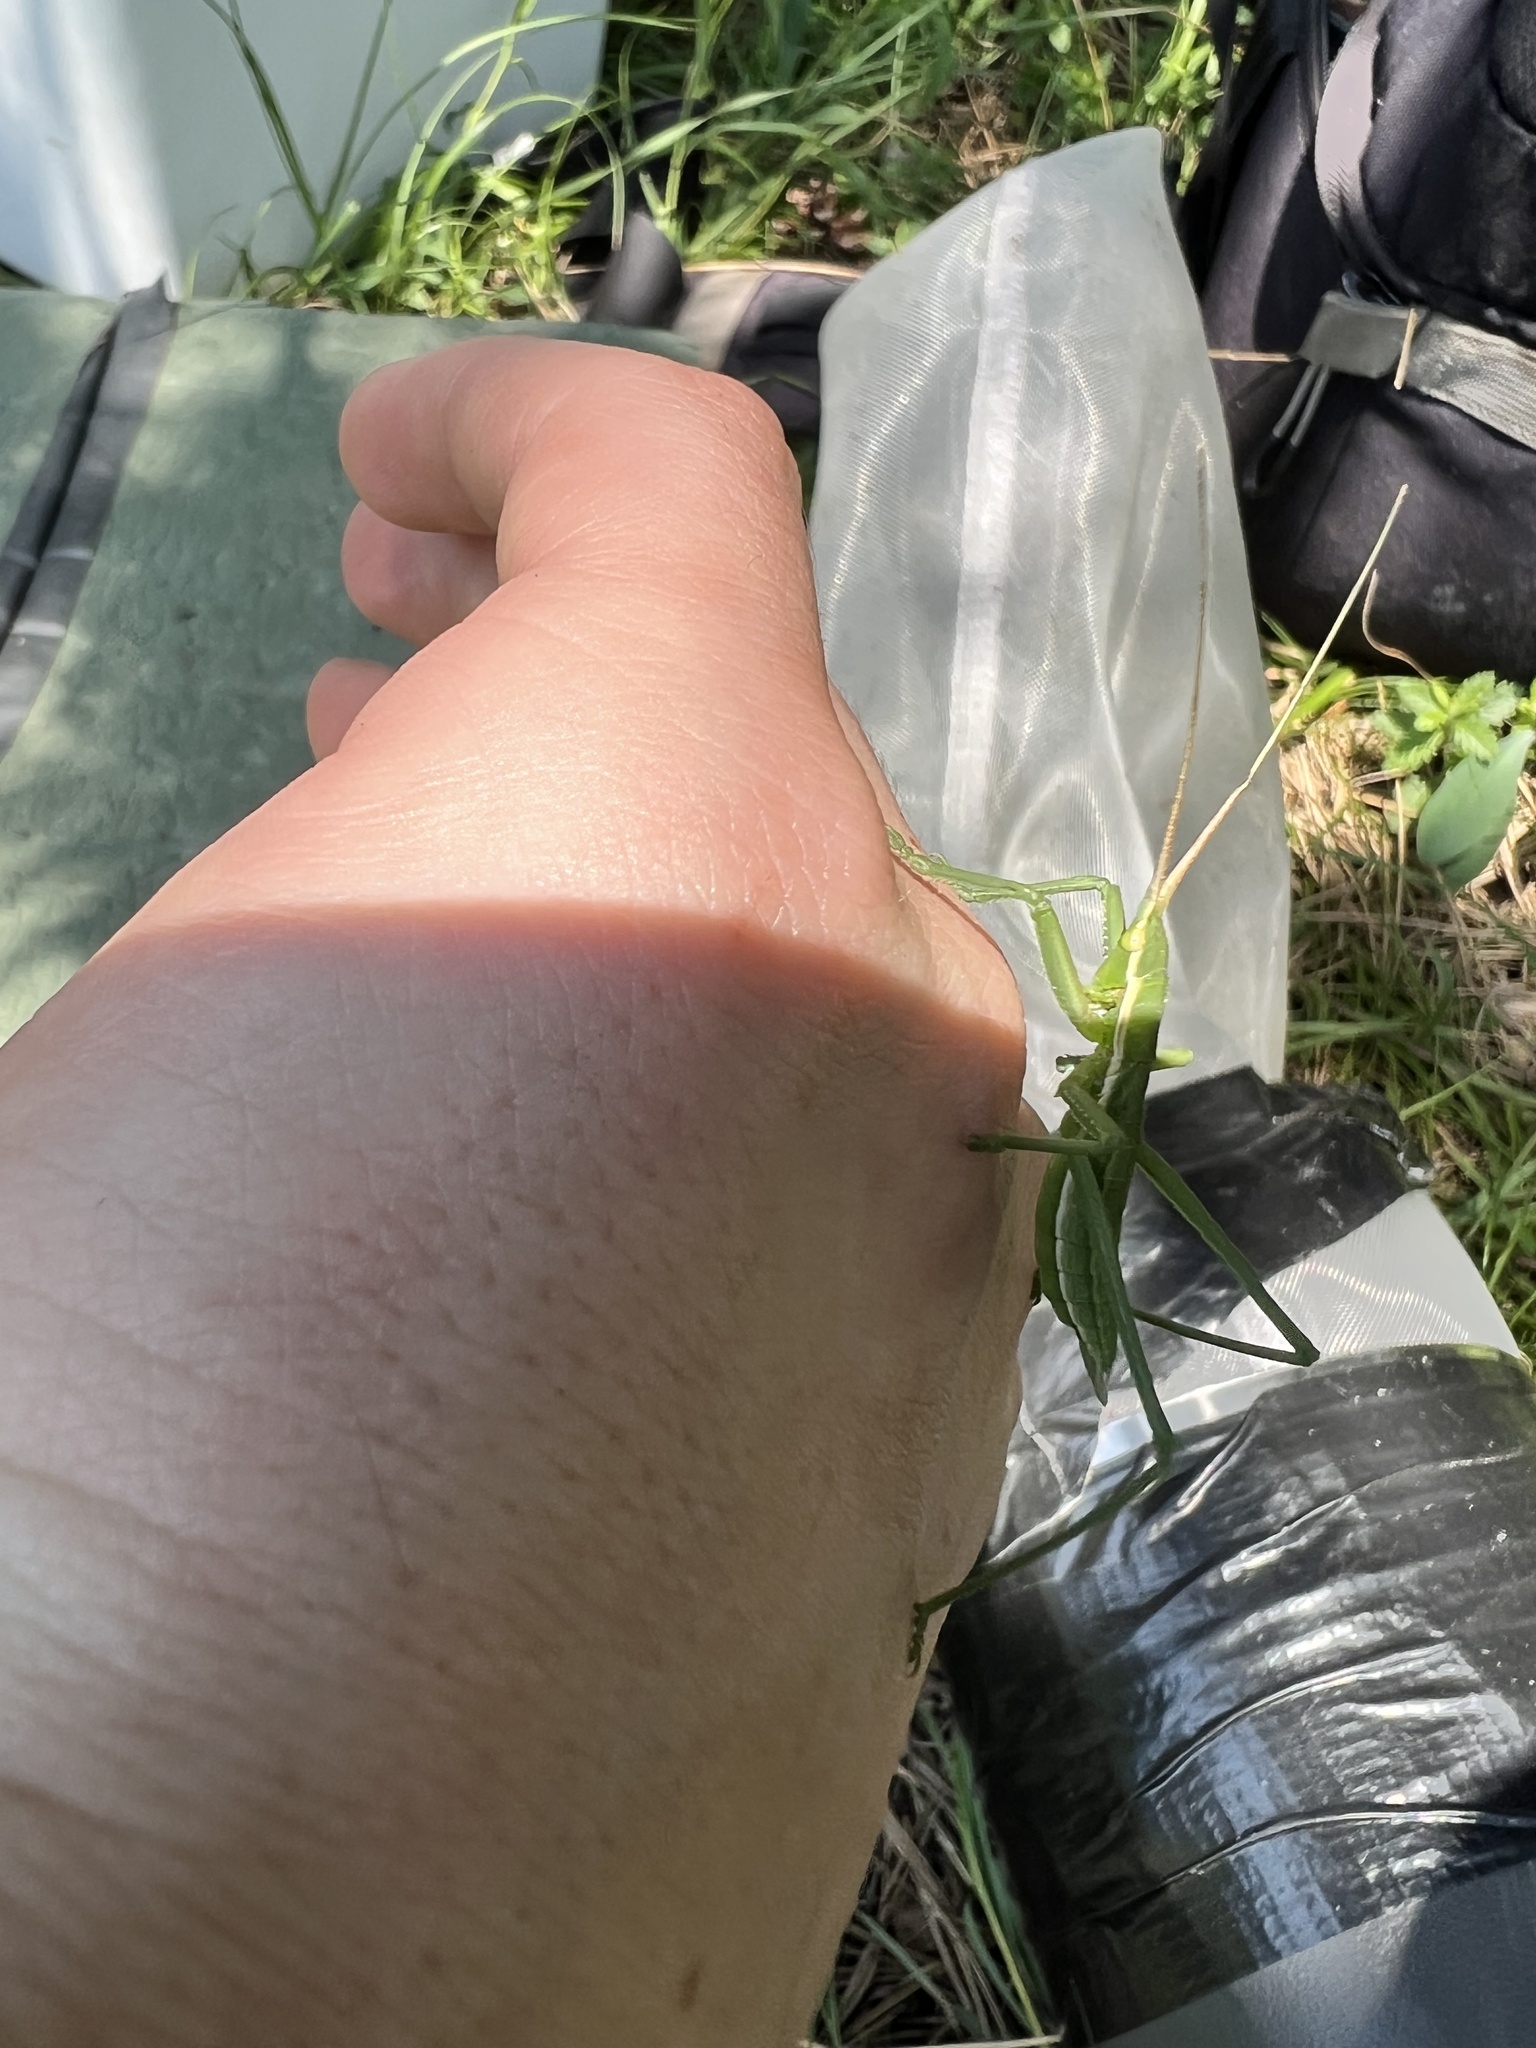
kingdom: Animalia
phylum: Arthropoda
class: Insecta
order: Orthoptera
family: Tettigoniidae
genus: Saga
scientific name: Saga pedo
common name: Common predatory bush-cricket
